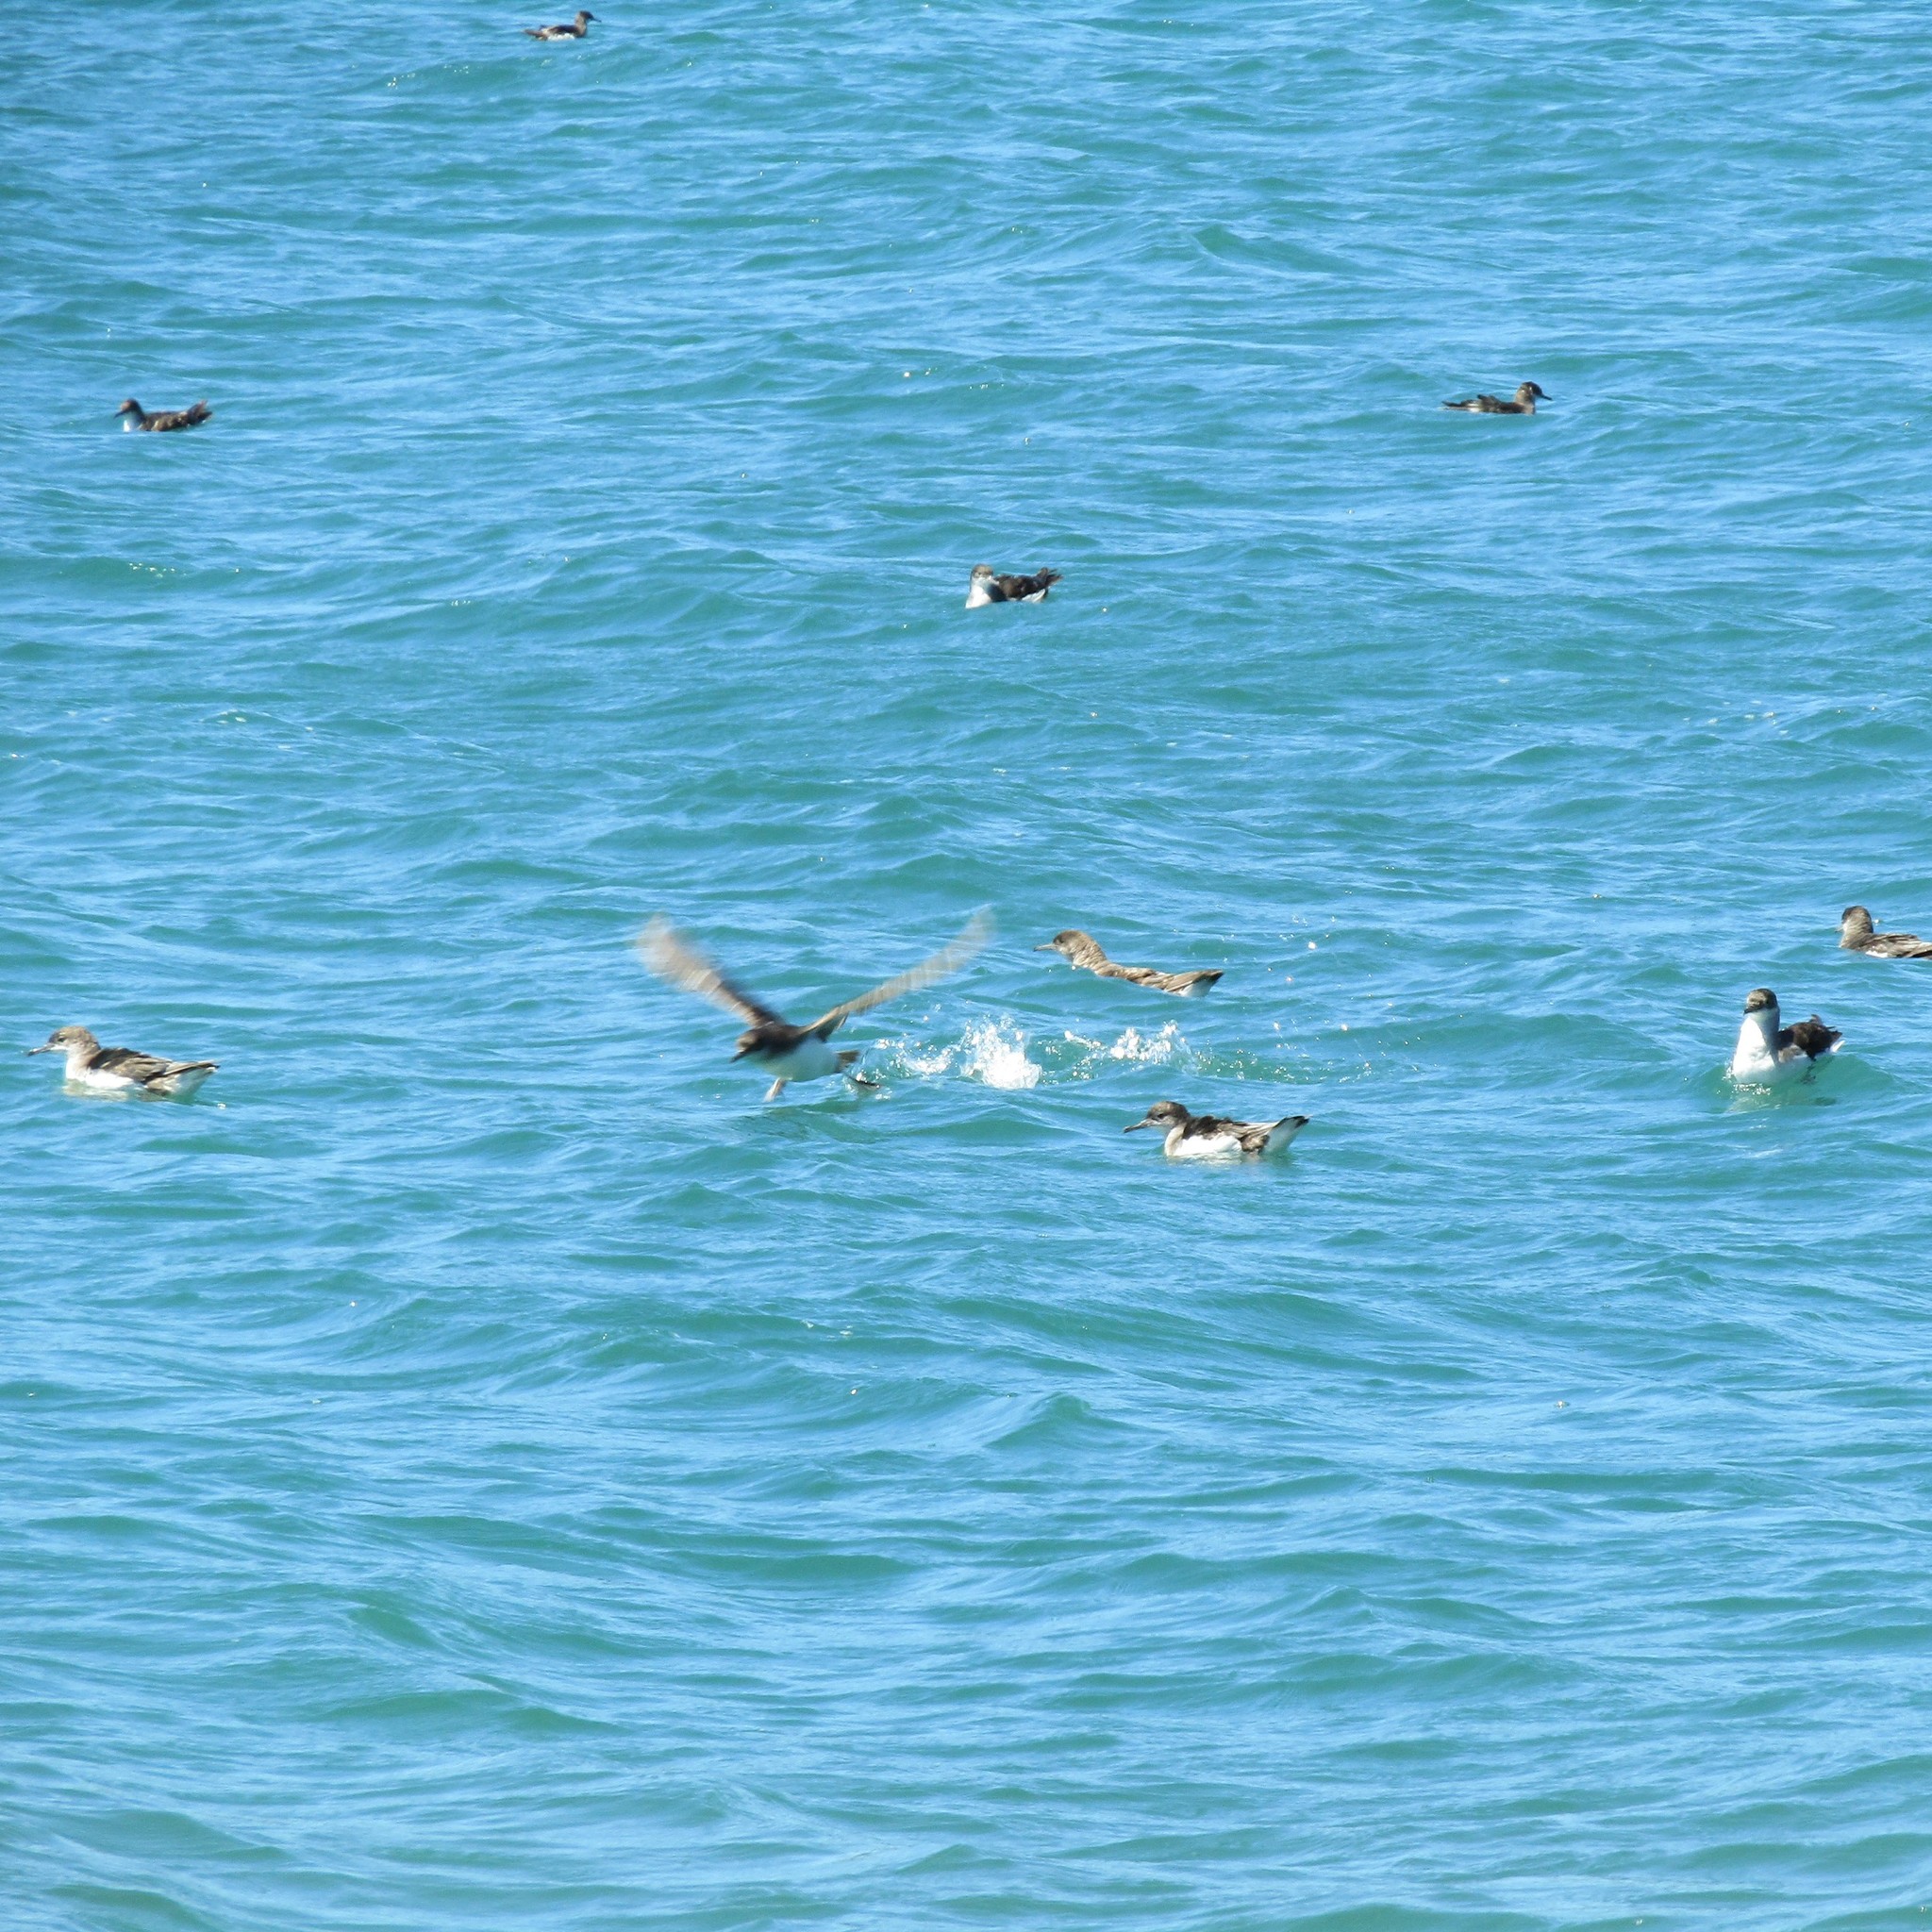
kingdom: Animalia
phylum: Chordata
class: Aves
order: Procellariiformes
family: Procellariidae
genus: Puffinus
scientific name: Puffinus gavia
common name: Fluttering shearwater
